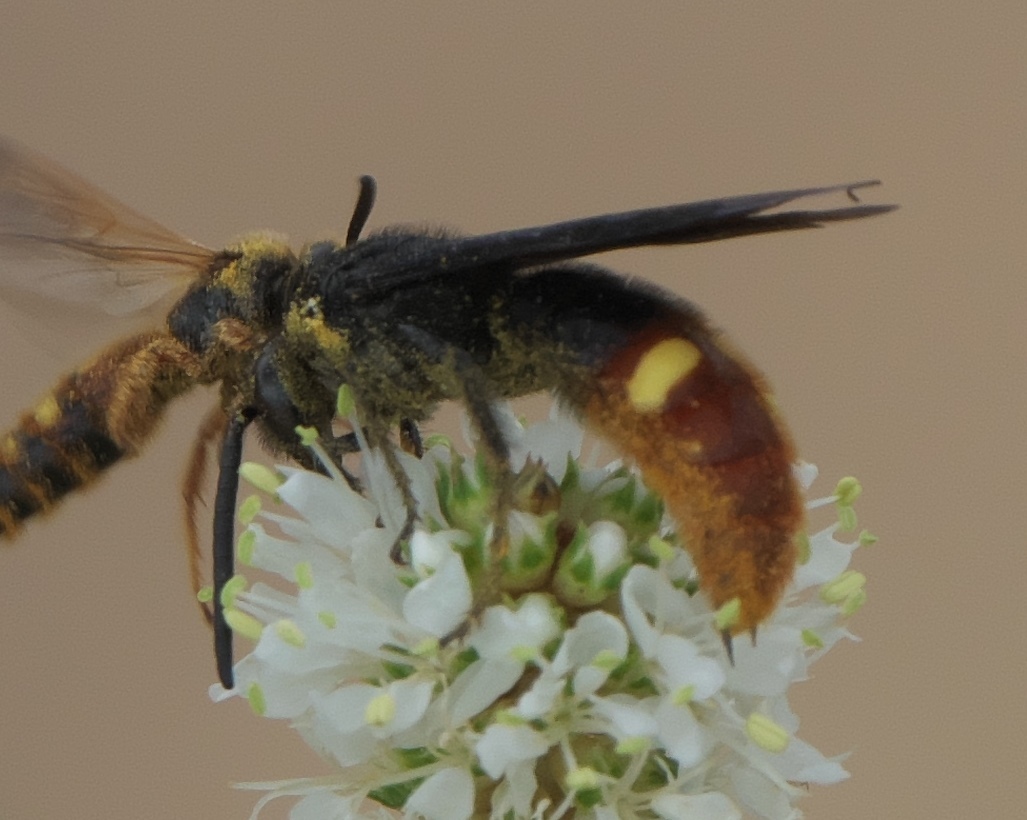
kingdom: Animalia
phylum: Arthropoda
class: Insecta
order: Hymenoptera
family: Scoliidae
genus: Scolia
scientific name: Scolia dubia
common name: Blue-winged scoliid wasp
